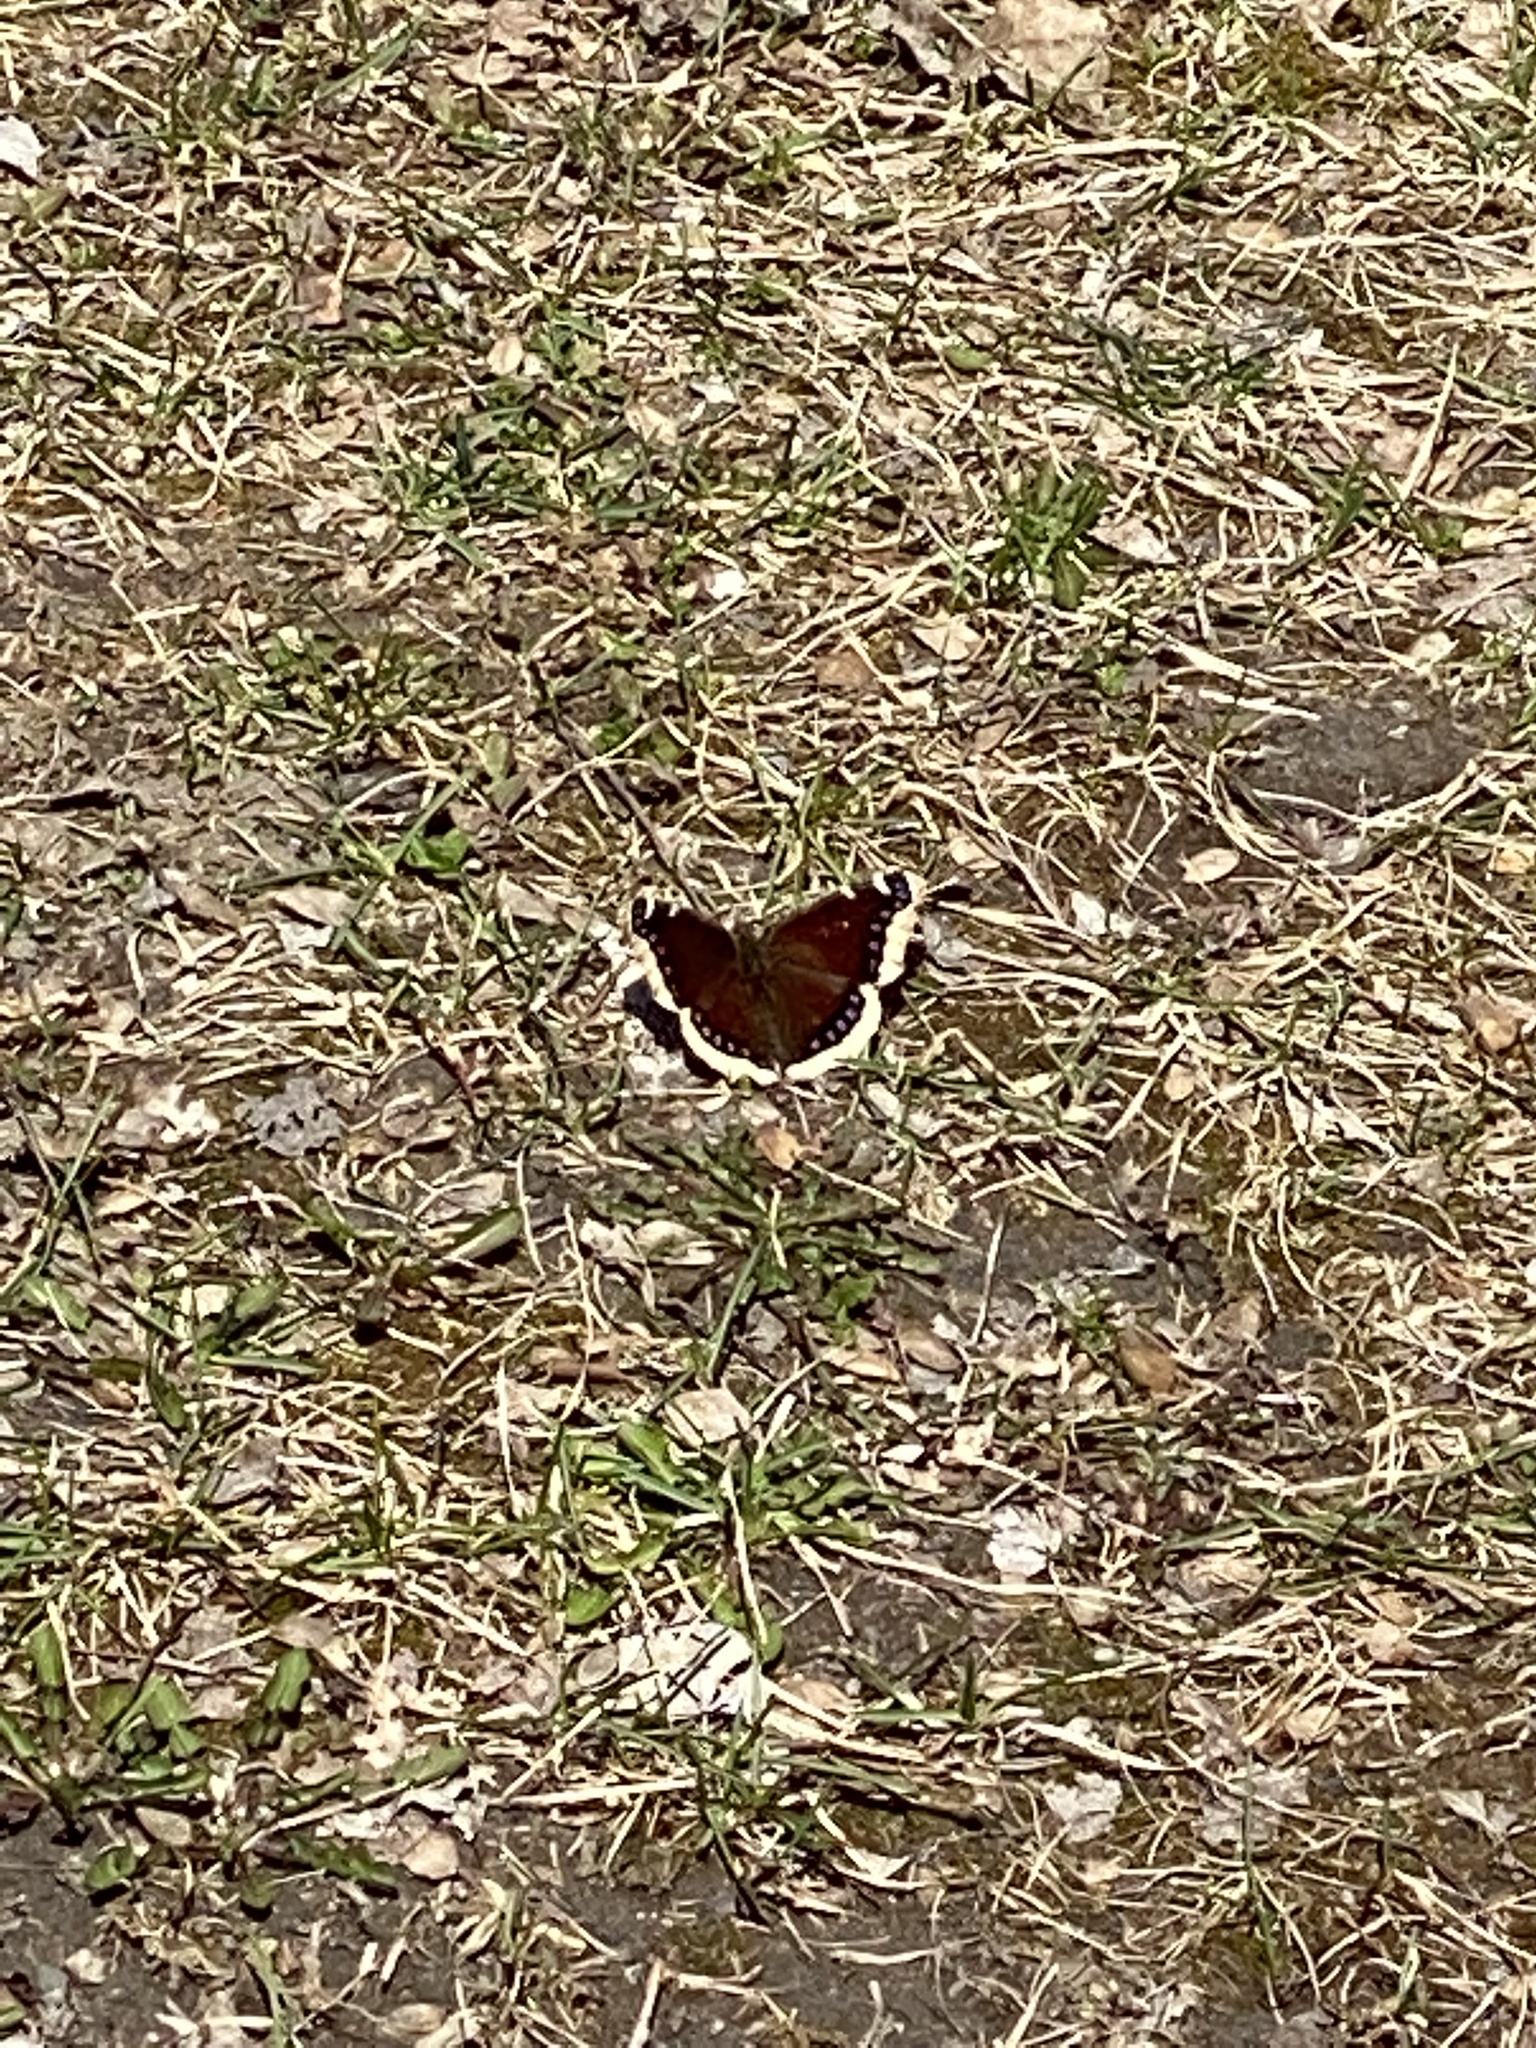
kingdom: Animalia
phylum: Arthropoda
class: Insecta
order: Lepidoptera
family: Nymphalidae
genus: Nymphalis
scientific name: Nymphalis antiopa
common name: Camberwell beauty
